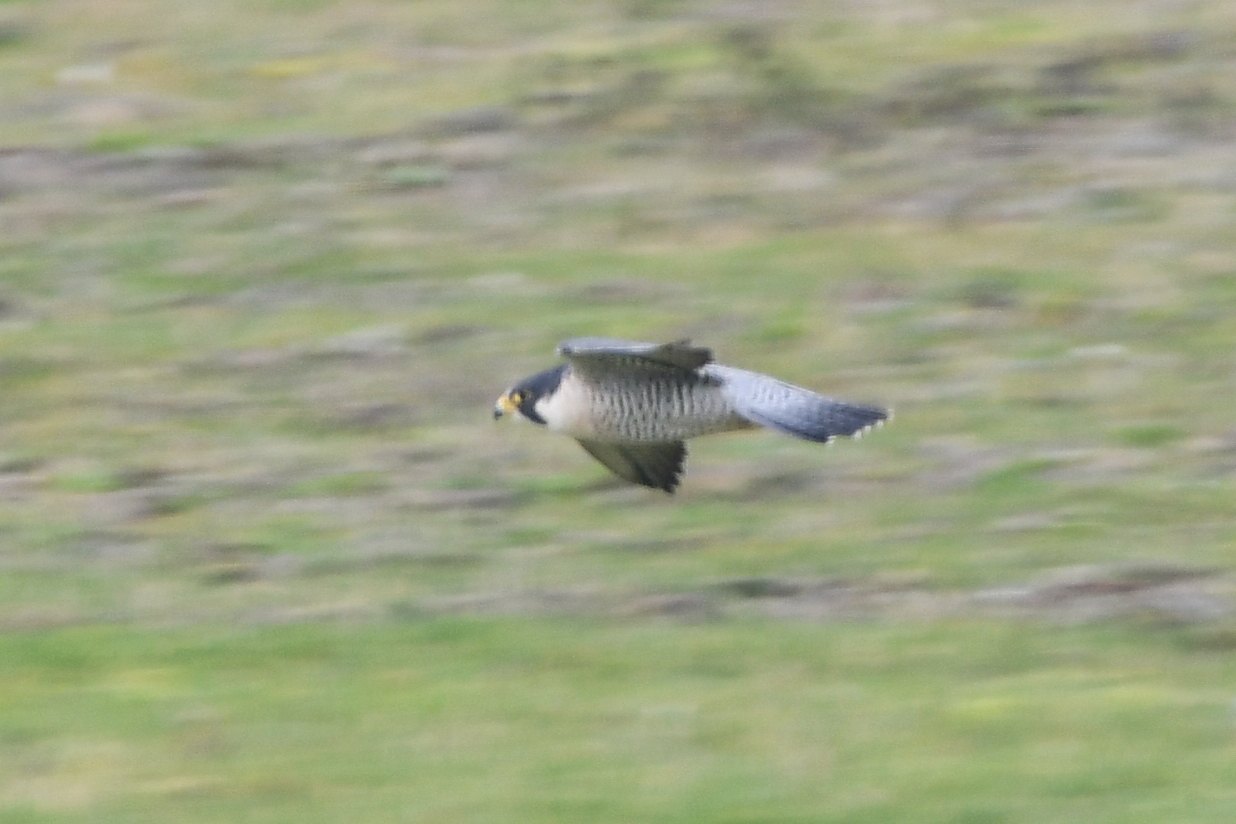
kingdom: Animalia
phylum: Chordata
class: Aves
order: Falconiformes
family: Falconidae
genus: Falco
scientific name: Falco peregrinus
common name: Peregrine falcon
